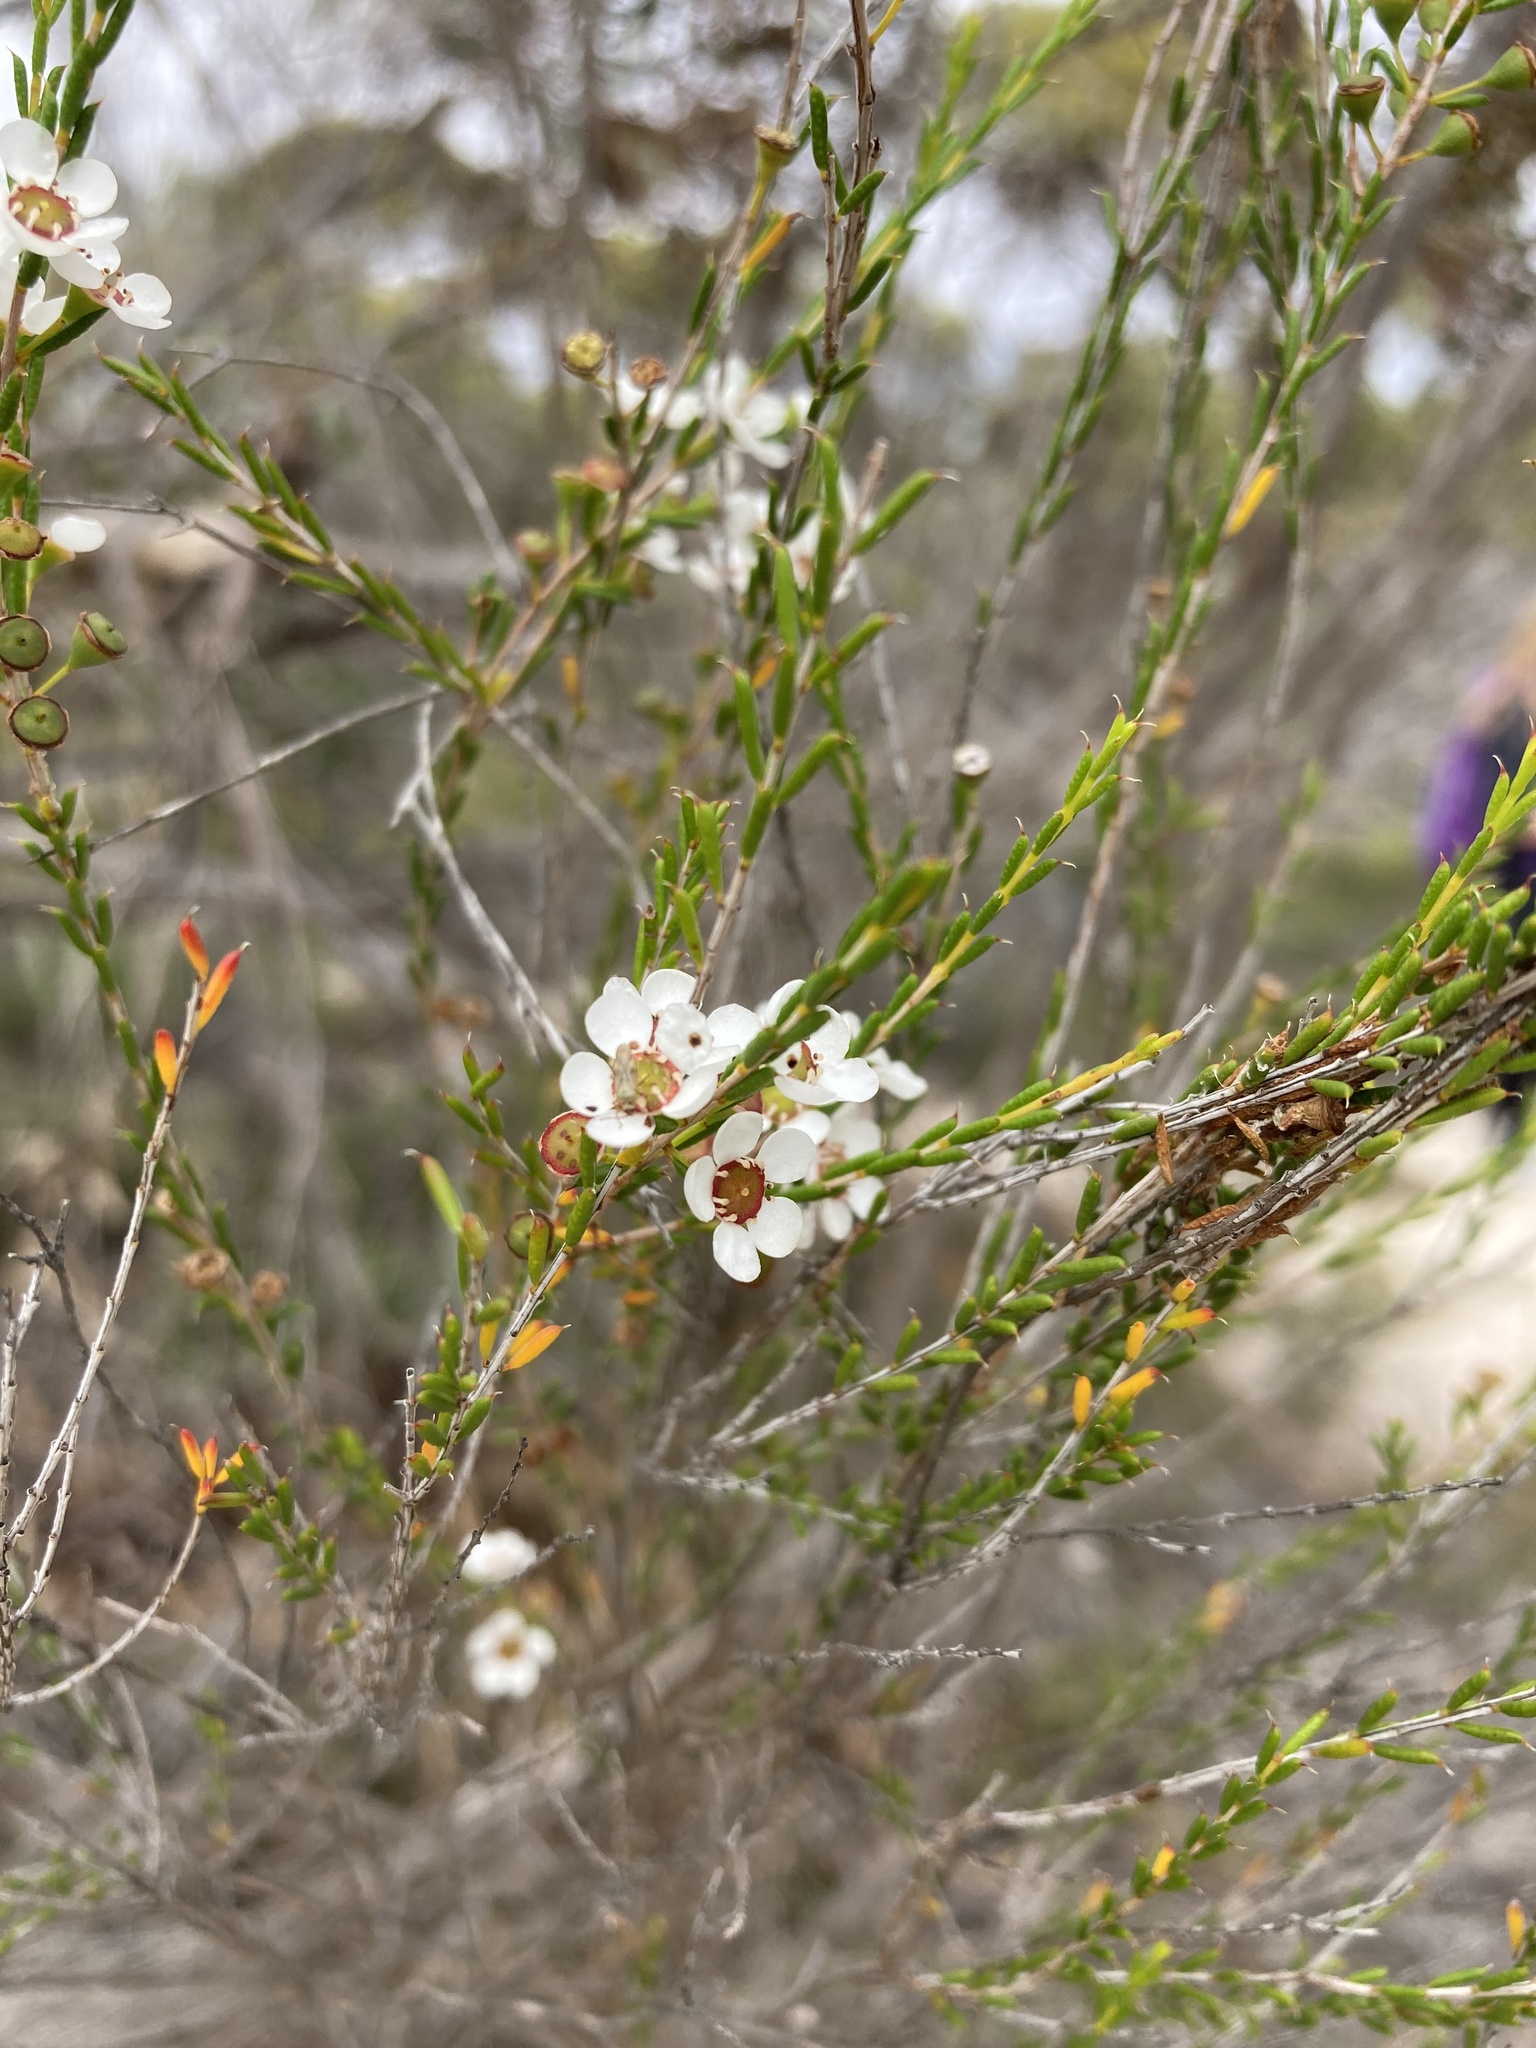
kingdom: Plantae
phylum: Tracheophyta
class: Magnoliopsida
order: Myrtales
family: Myrtaceae
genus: Hysterobaeckea
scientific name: Hysterobaeckea behrii
